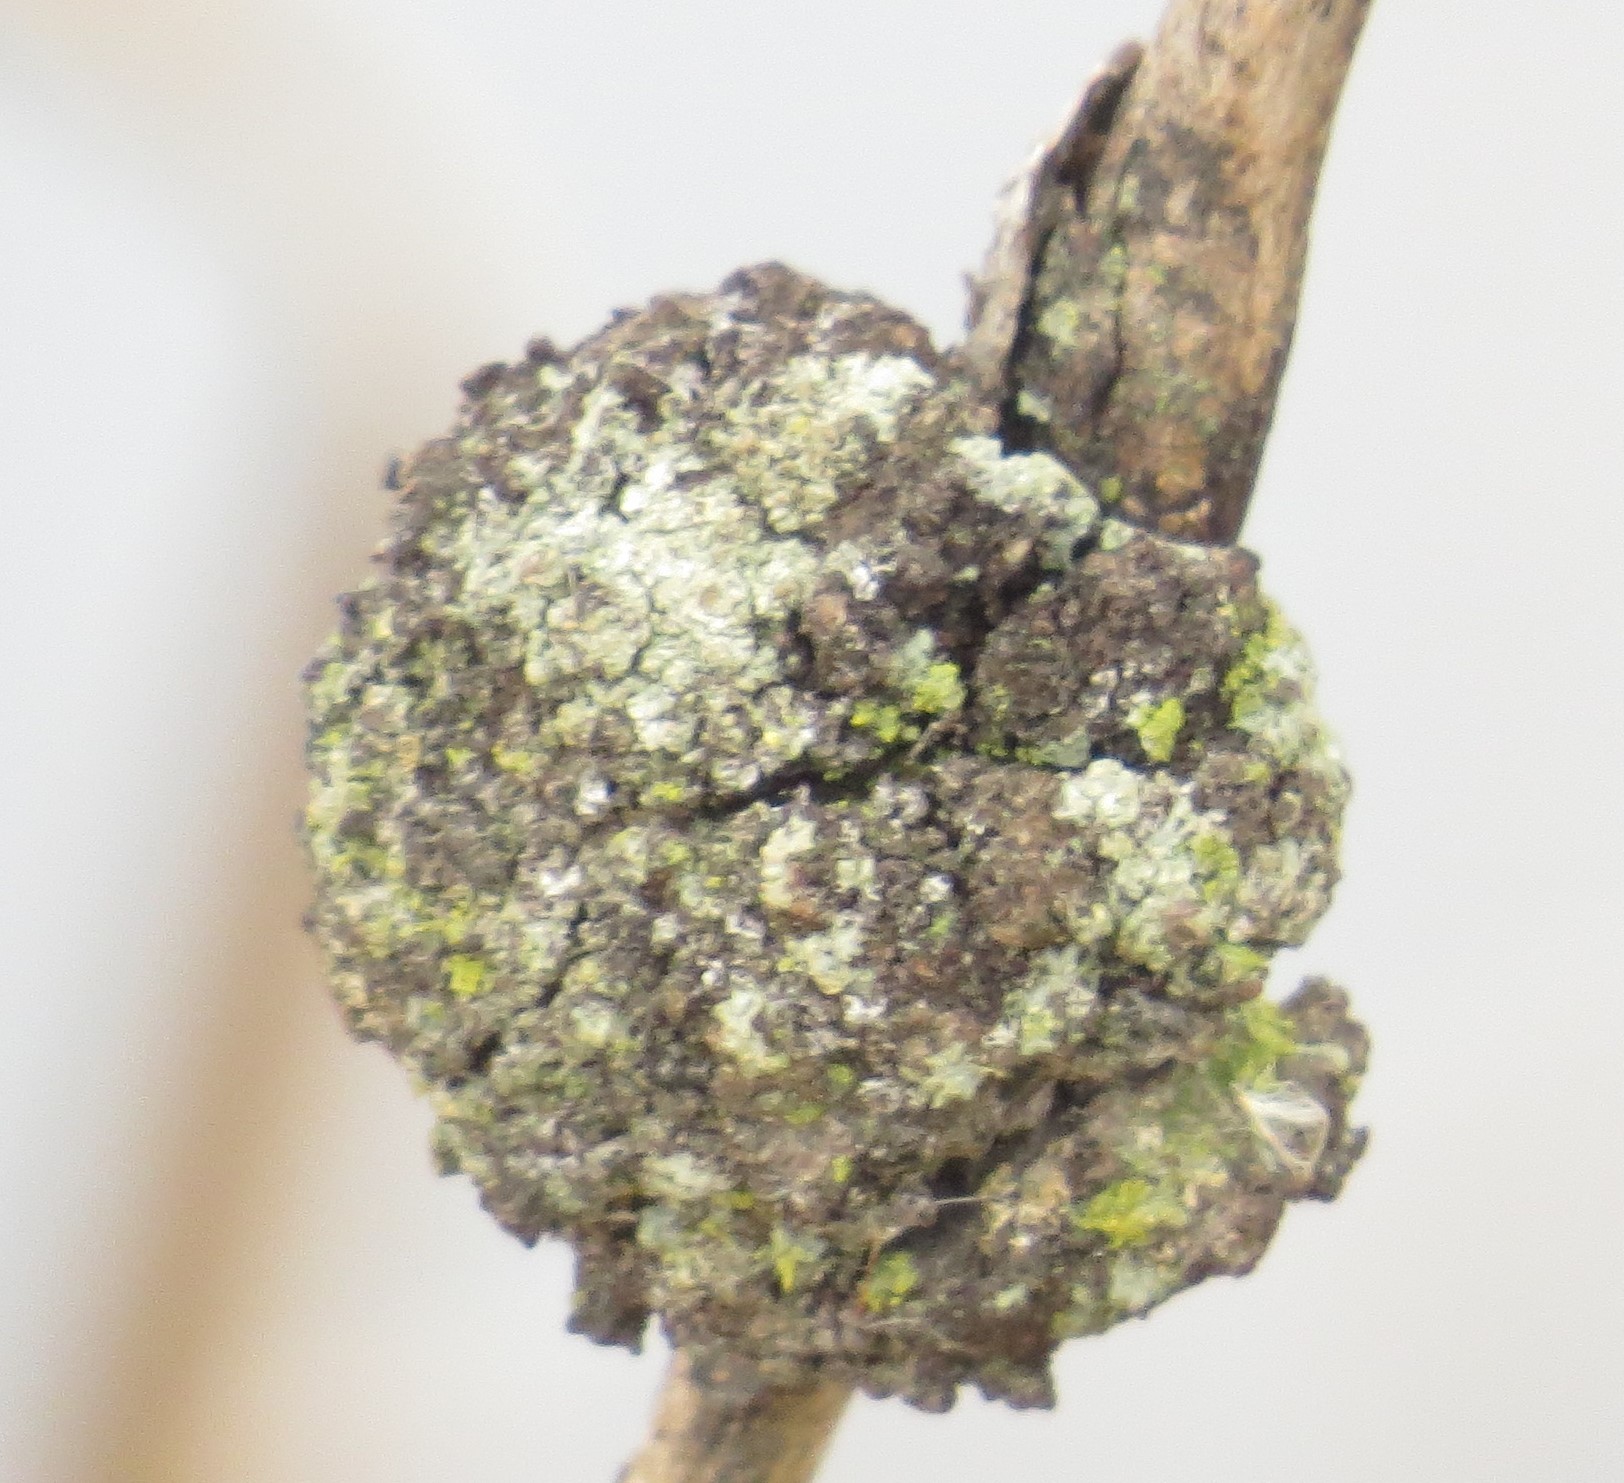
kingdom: Animalia
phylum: Arthropoda
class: Arachnida
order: Trombidiformes
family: Eriophyidae
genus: Aceria
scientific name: Aceria
